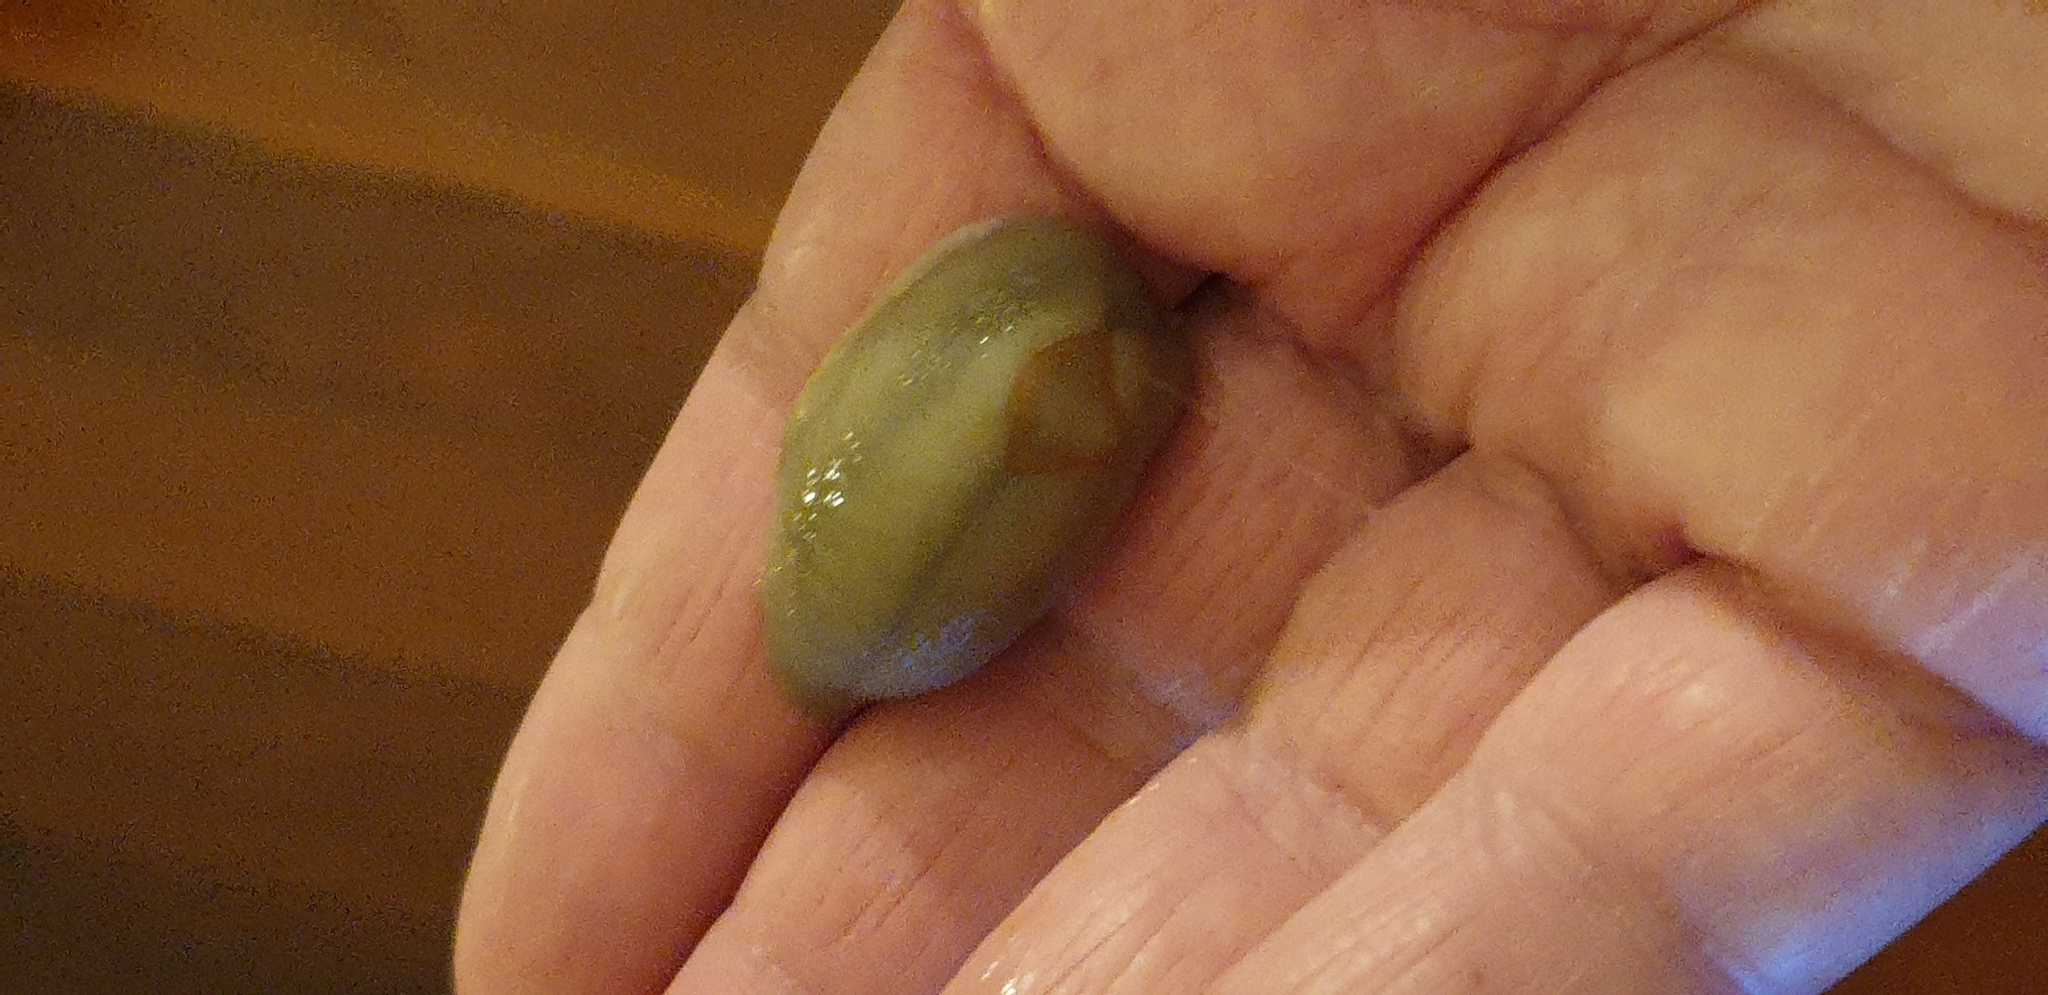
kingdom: Animalia
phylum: Mollusca
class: Gastropoda
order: Stylommatophora
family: Athoracophoridae
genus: Triboniophorus
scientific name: Triboniophorus graeffei
